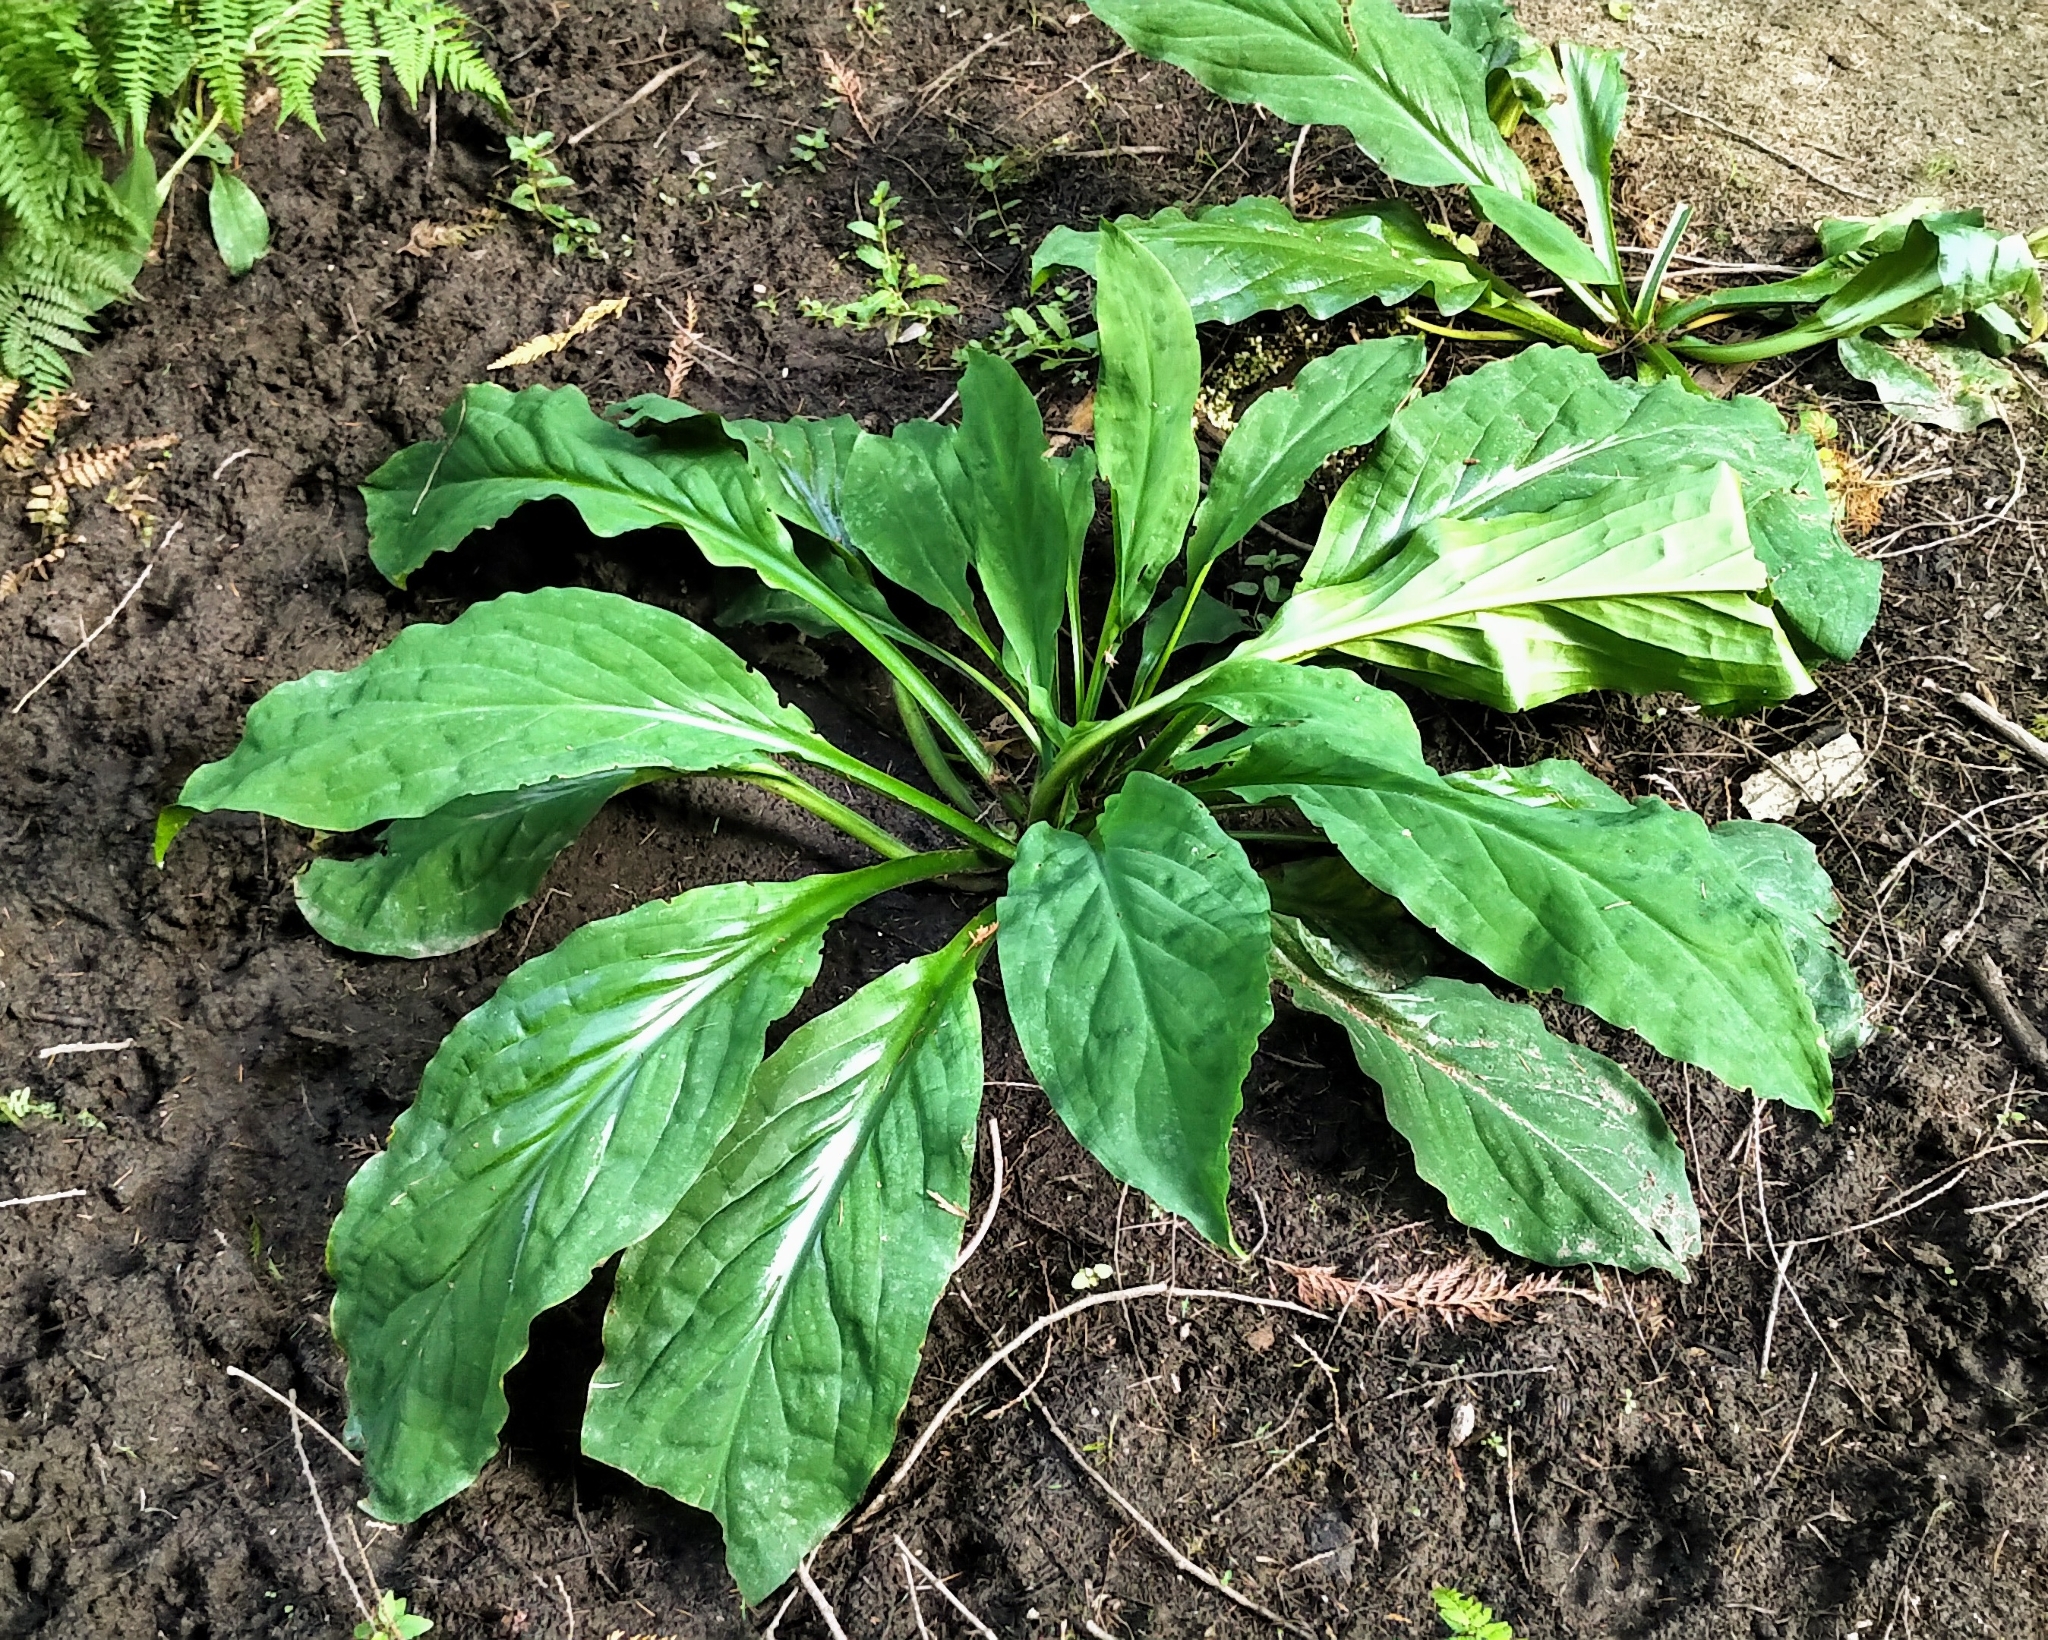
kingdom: Plantae
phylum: Tracheophyta
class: Liliopsida
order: Alismatales
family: Araceae
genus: Lysichiton
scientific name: Lysichiton americanus
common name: American skunk cabbage
